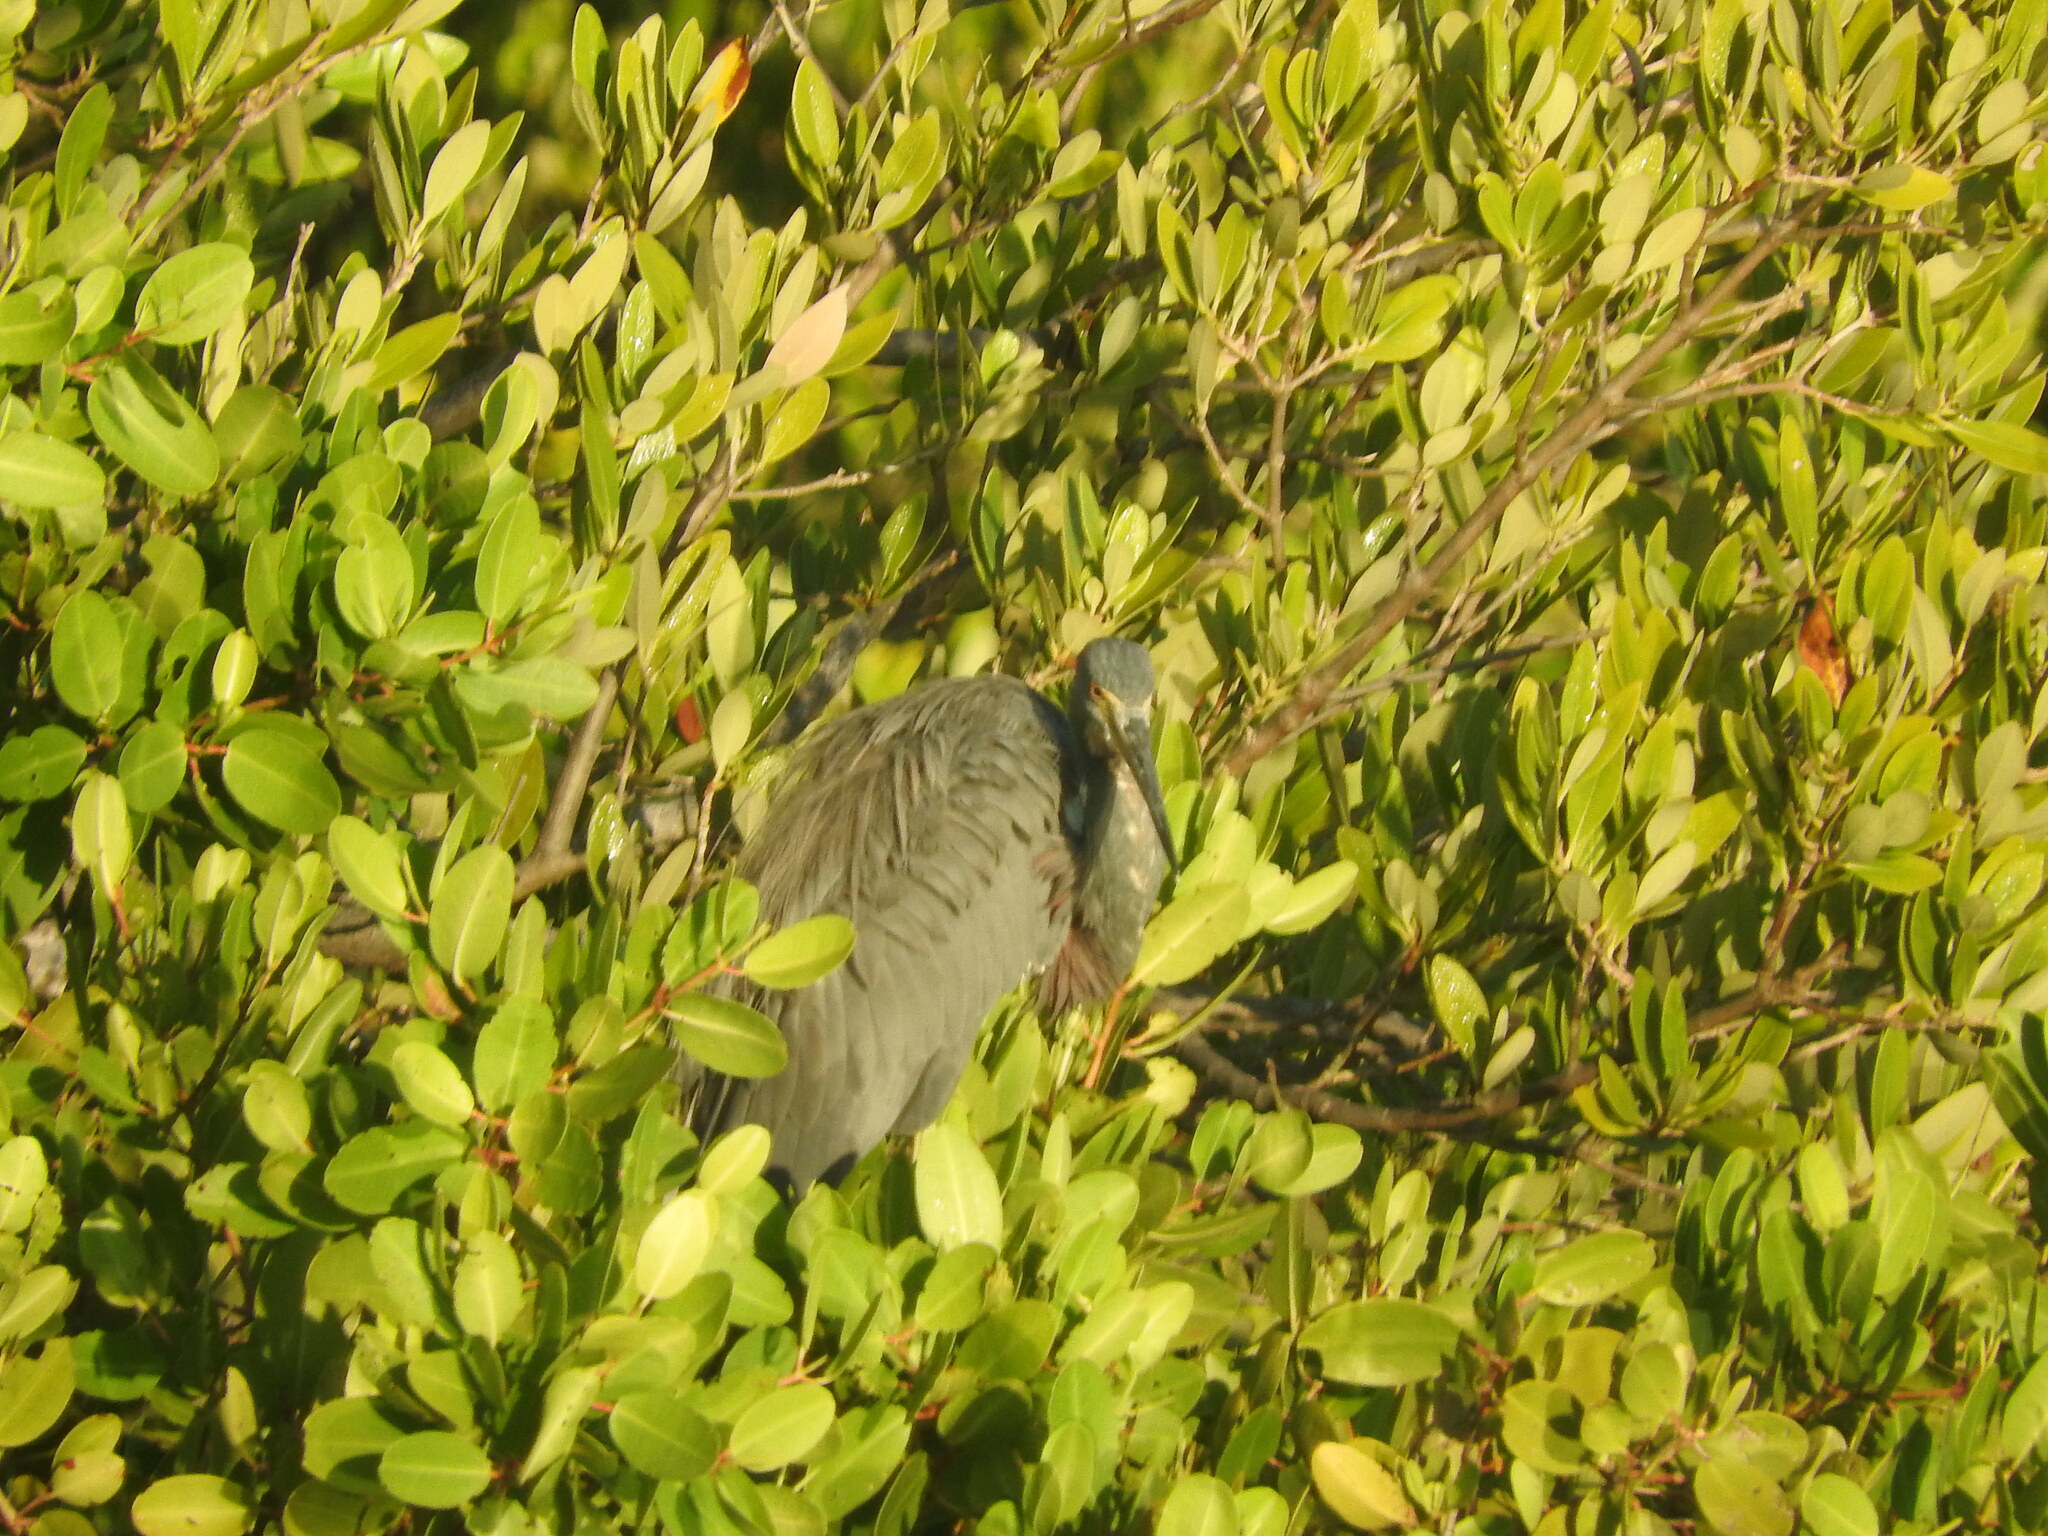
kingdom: Animalia
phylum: Chordata
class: Aves
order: Pelecaniformes
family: Ardeidae
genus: Egretta
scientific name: Egretta tricolor
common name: Tricolored heron
